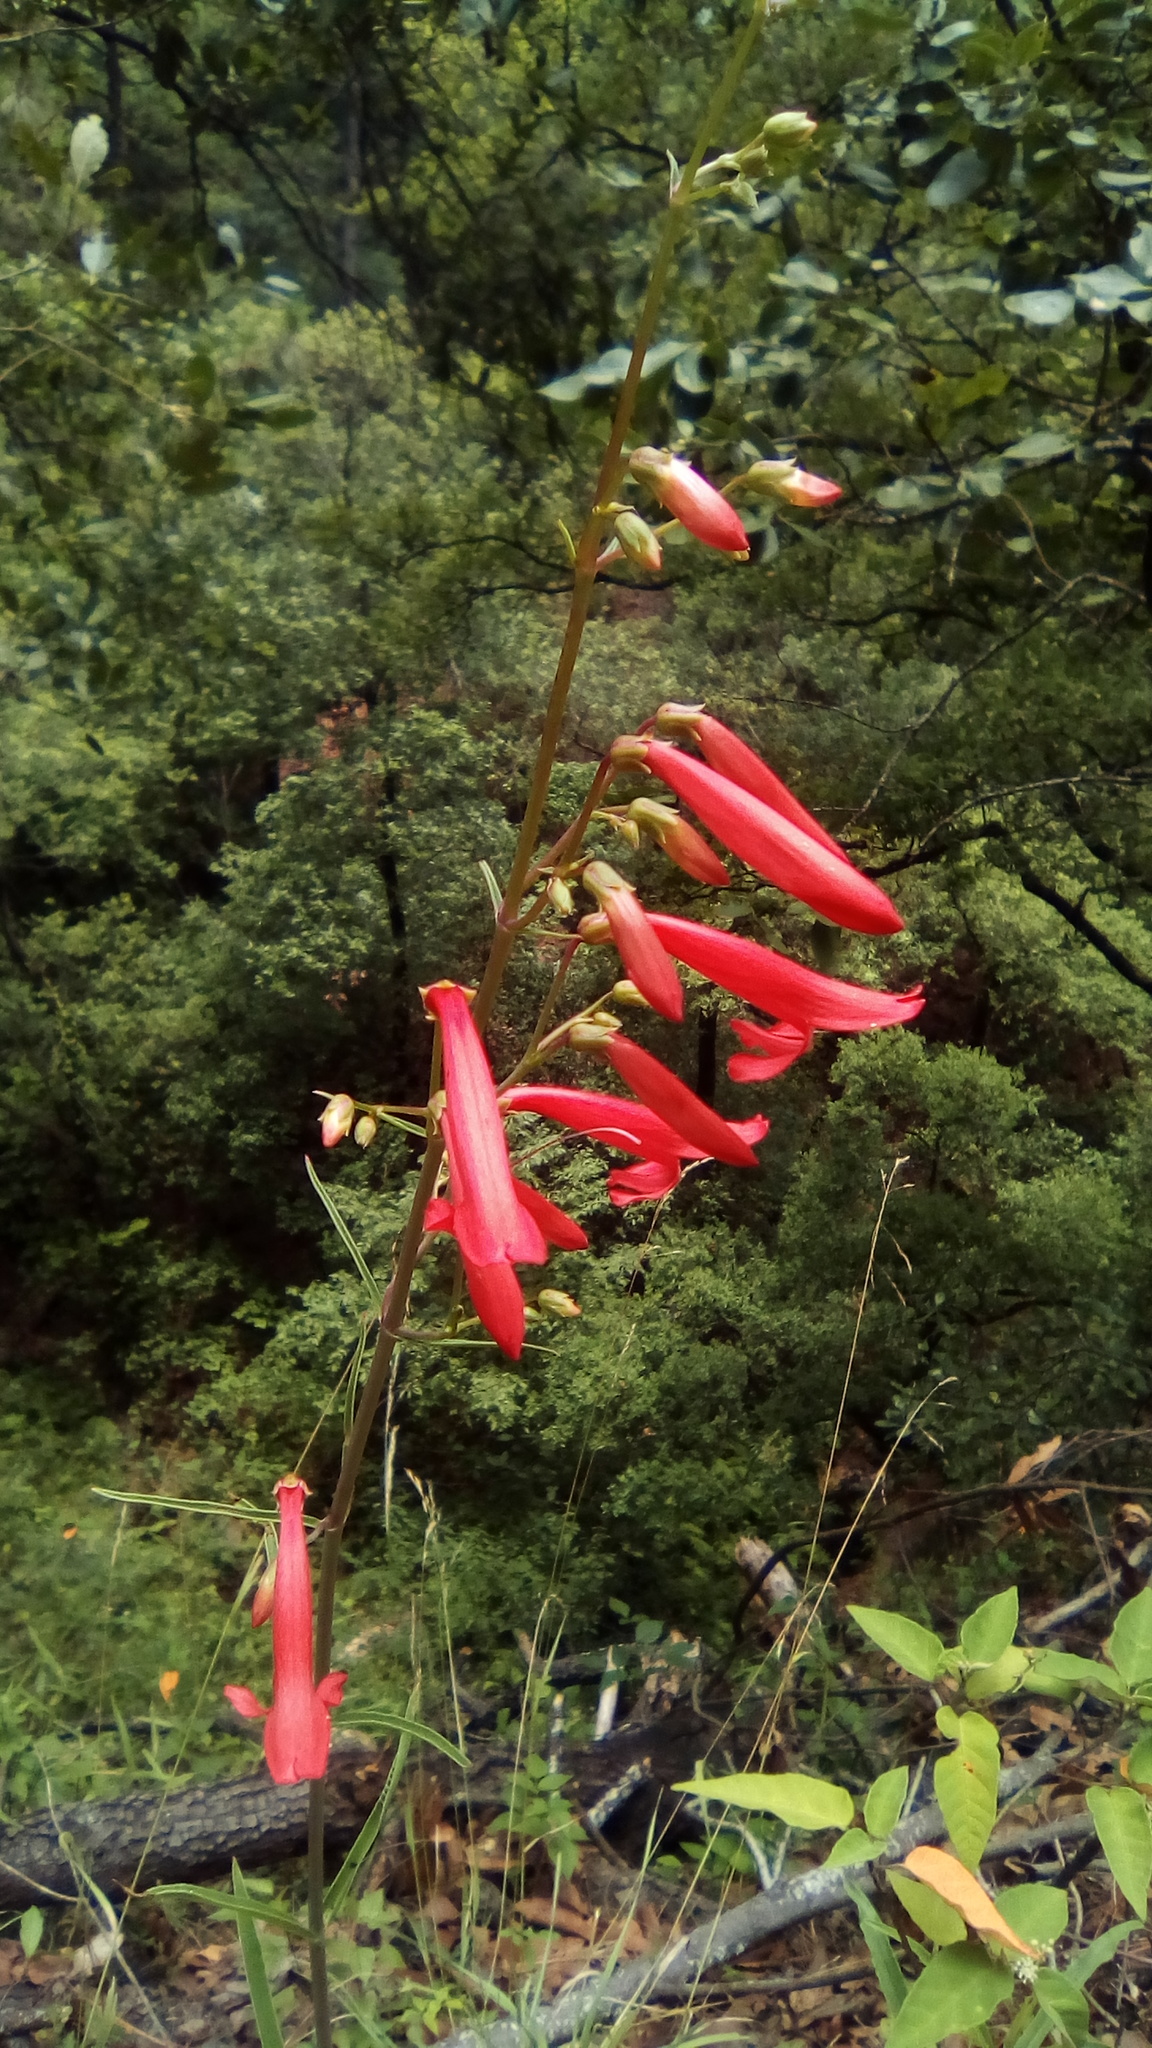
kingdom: Plantae
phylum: Tracheophyta
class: Magnoliopsida
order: Lamiales
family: Plantaginaceae
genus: Penstemon
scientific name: Penstemon barbatus
